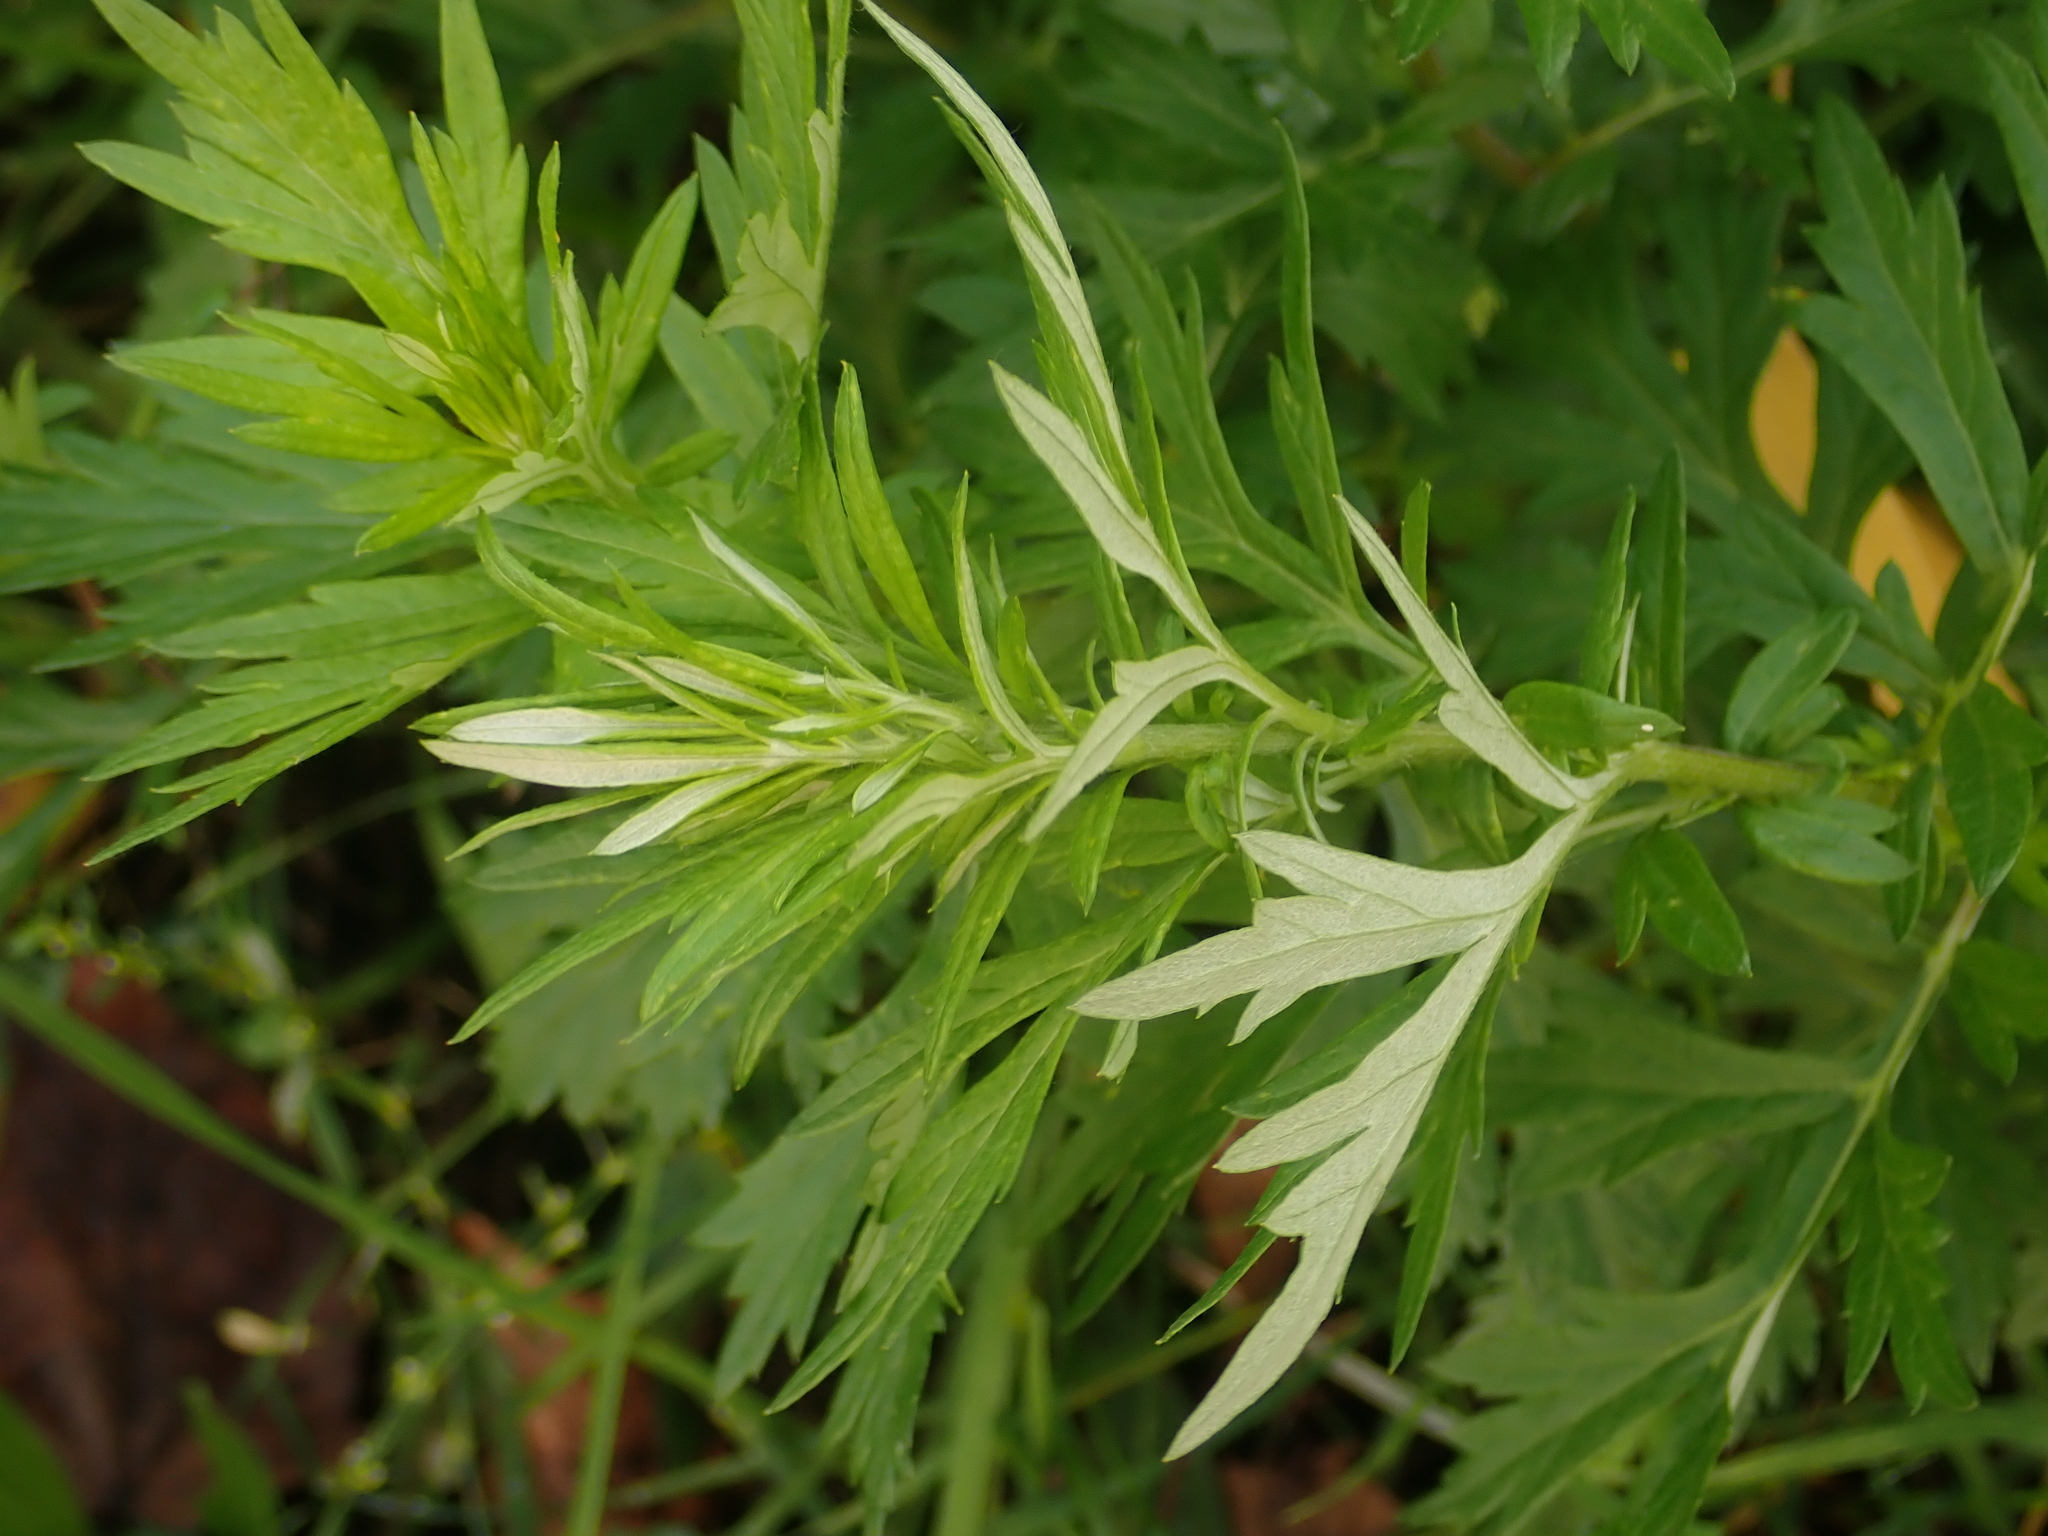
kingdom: Plantae
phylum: Tracheophyta
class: Magnoliopsida
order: Asterales
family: Asteraceae
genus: Artemisia
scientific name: Artemisia vulgaris
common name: Mugwort
